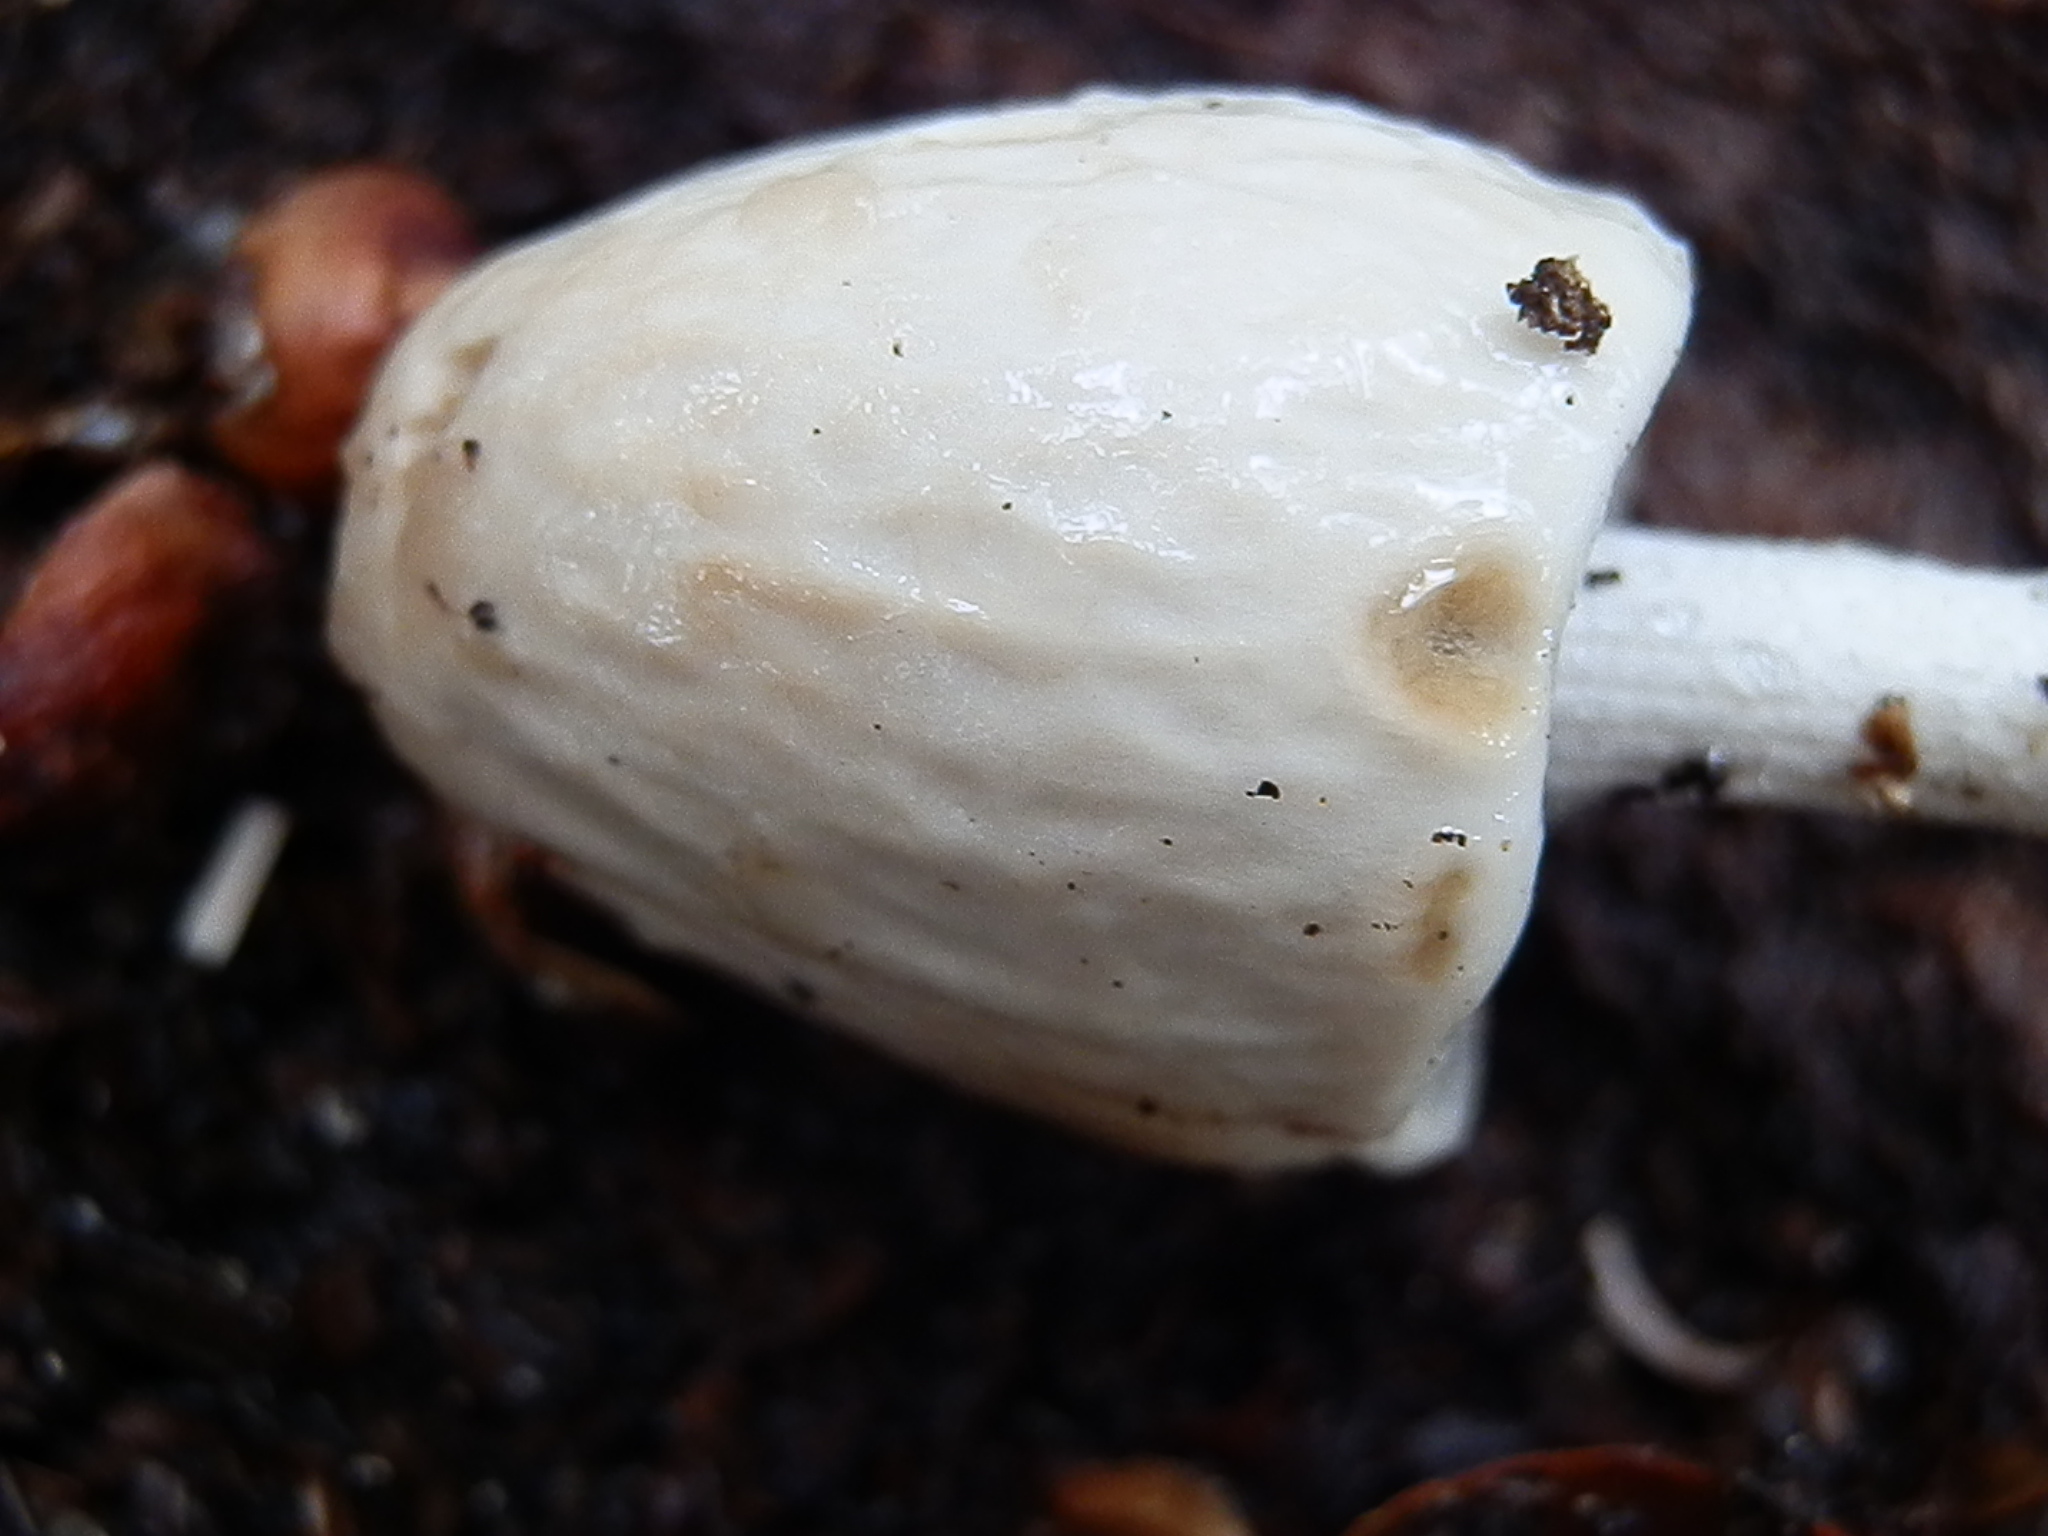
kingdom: Fungi
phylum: Basidiomycota
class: Agaricomycetes
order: Agaricales
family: Bolbitiaceae
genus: Panaeolus
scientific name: Panaeolus semiovatus
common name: Shiny mottlegill
